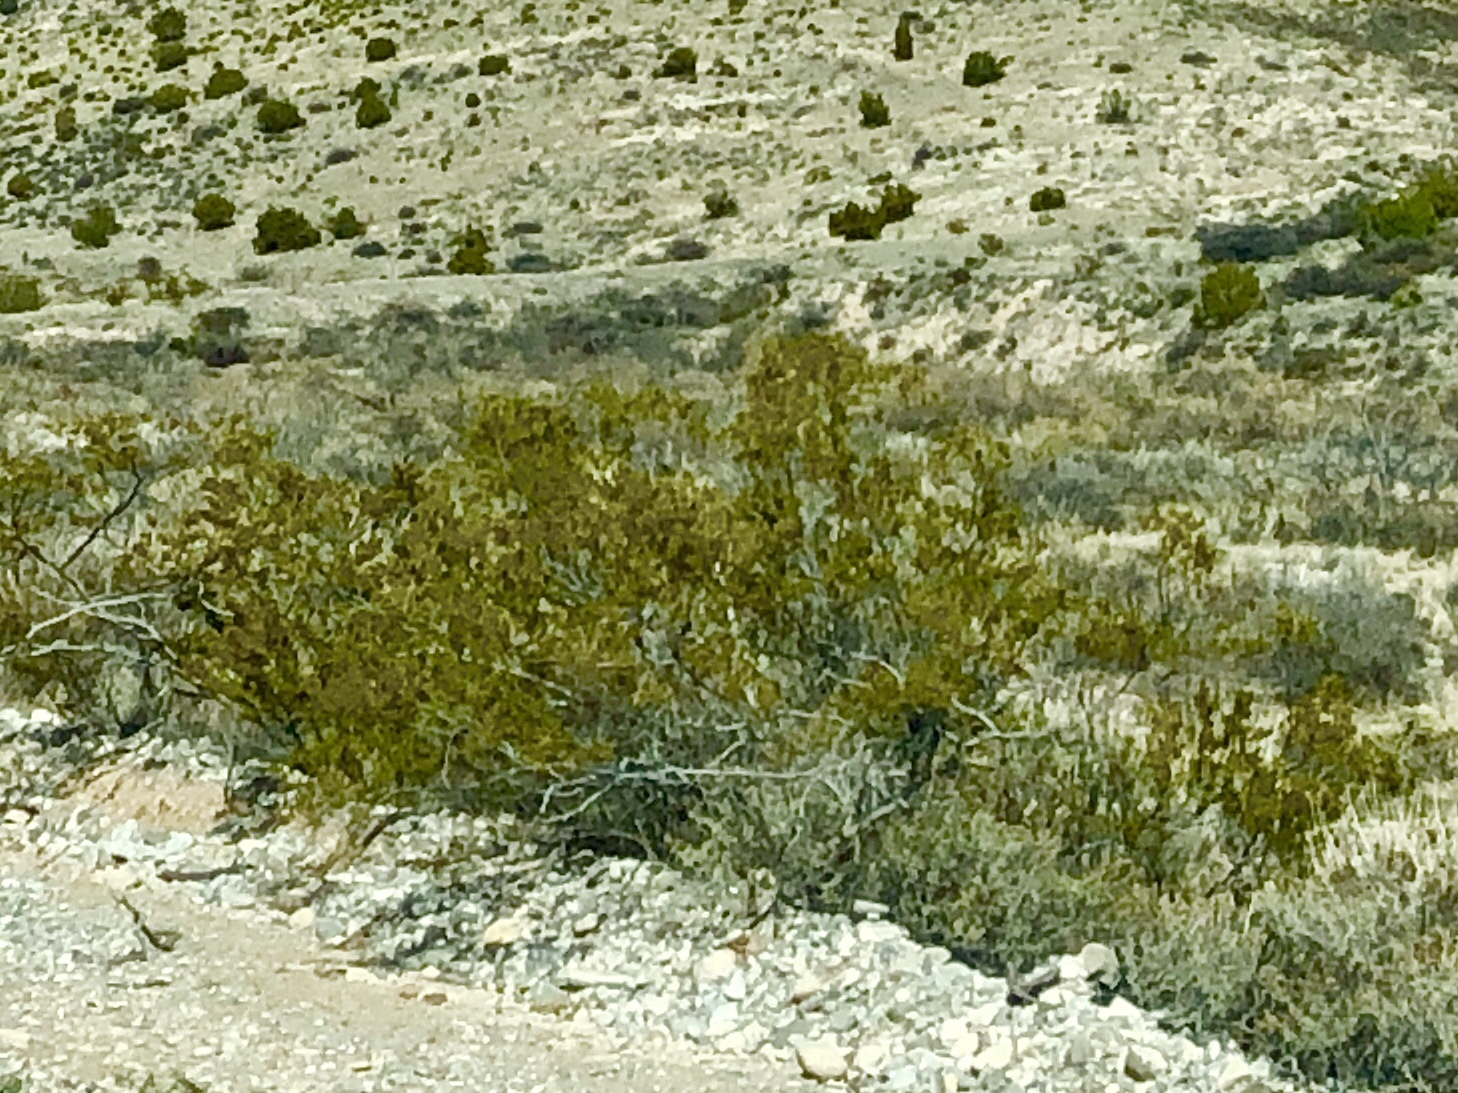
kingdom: Plantae
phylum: Tracheophyta
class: Magnoliopsida
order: Zygophyllales
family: Zygophyllaceae
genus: Larrea
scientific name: Larrea tridentata
